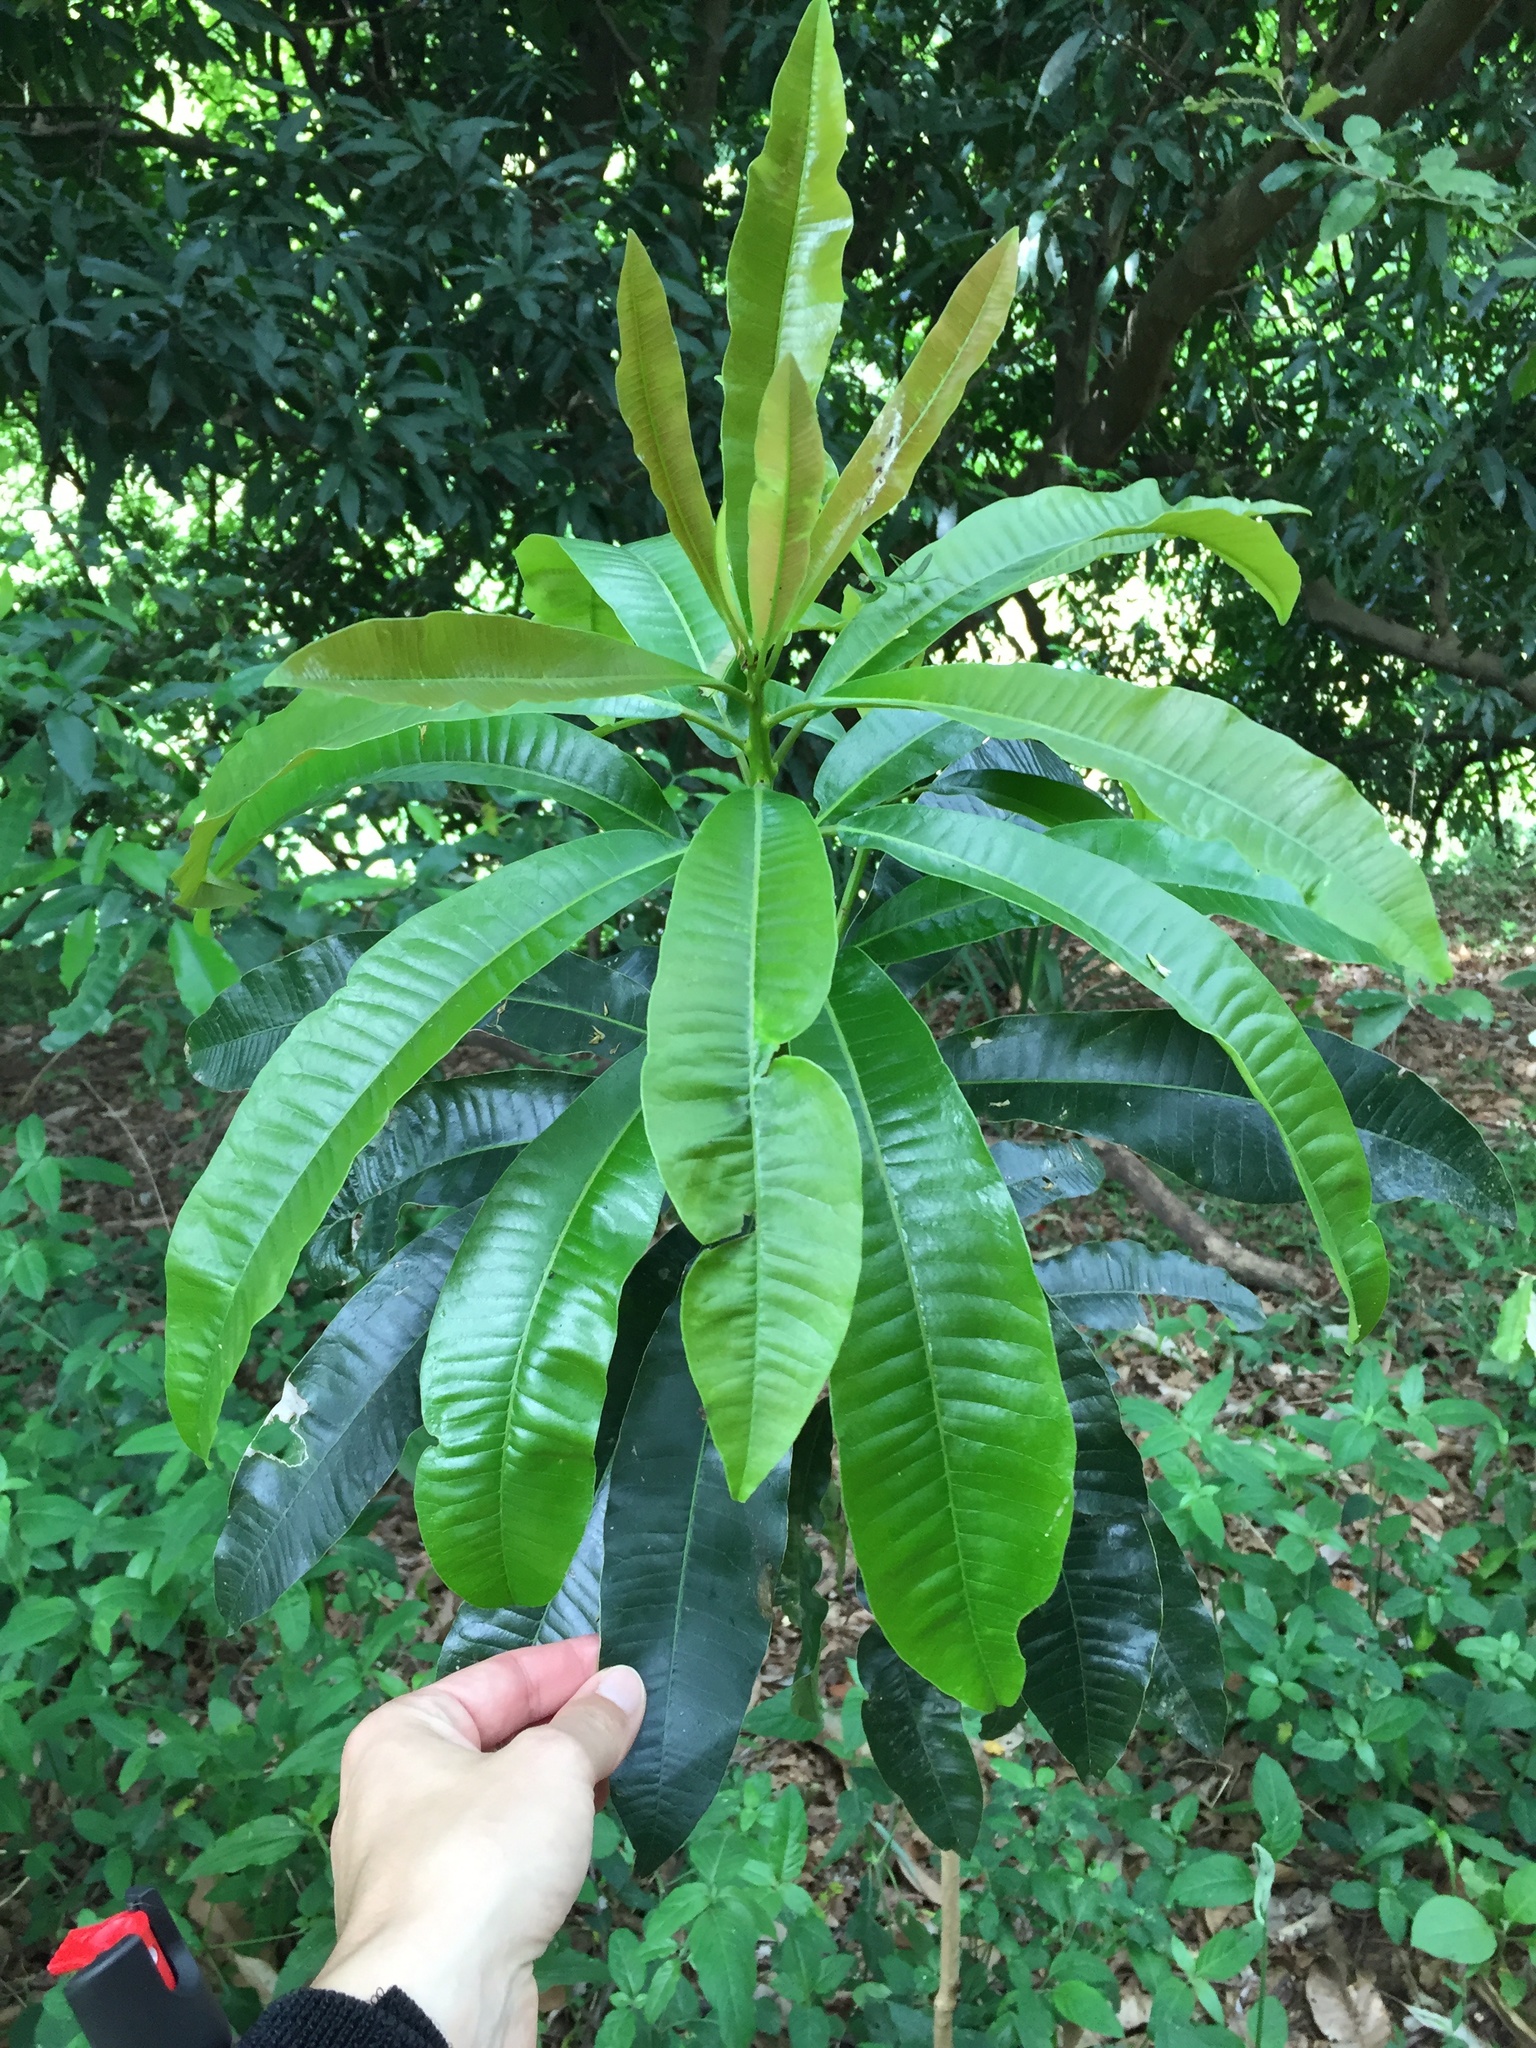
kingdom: Plantae
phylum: Tracheophyta
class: Magnoliopsida
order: Sapindales
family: Anacardiaceae
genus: Protorhus
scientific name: Protorhus longifolia
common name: Red-beech
